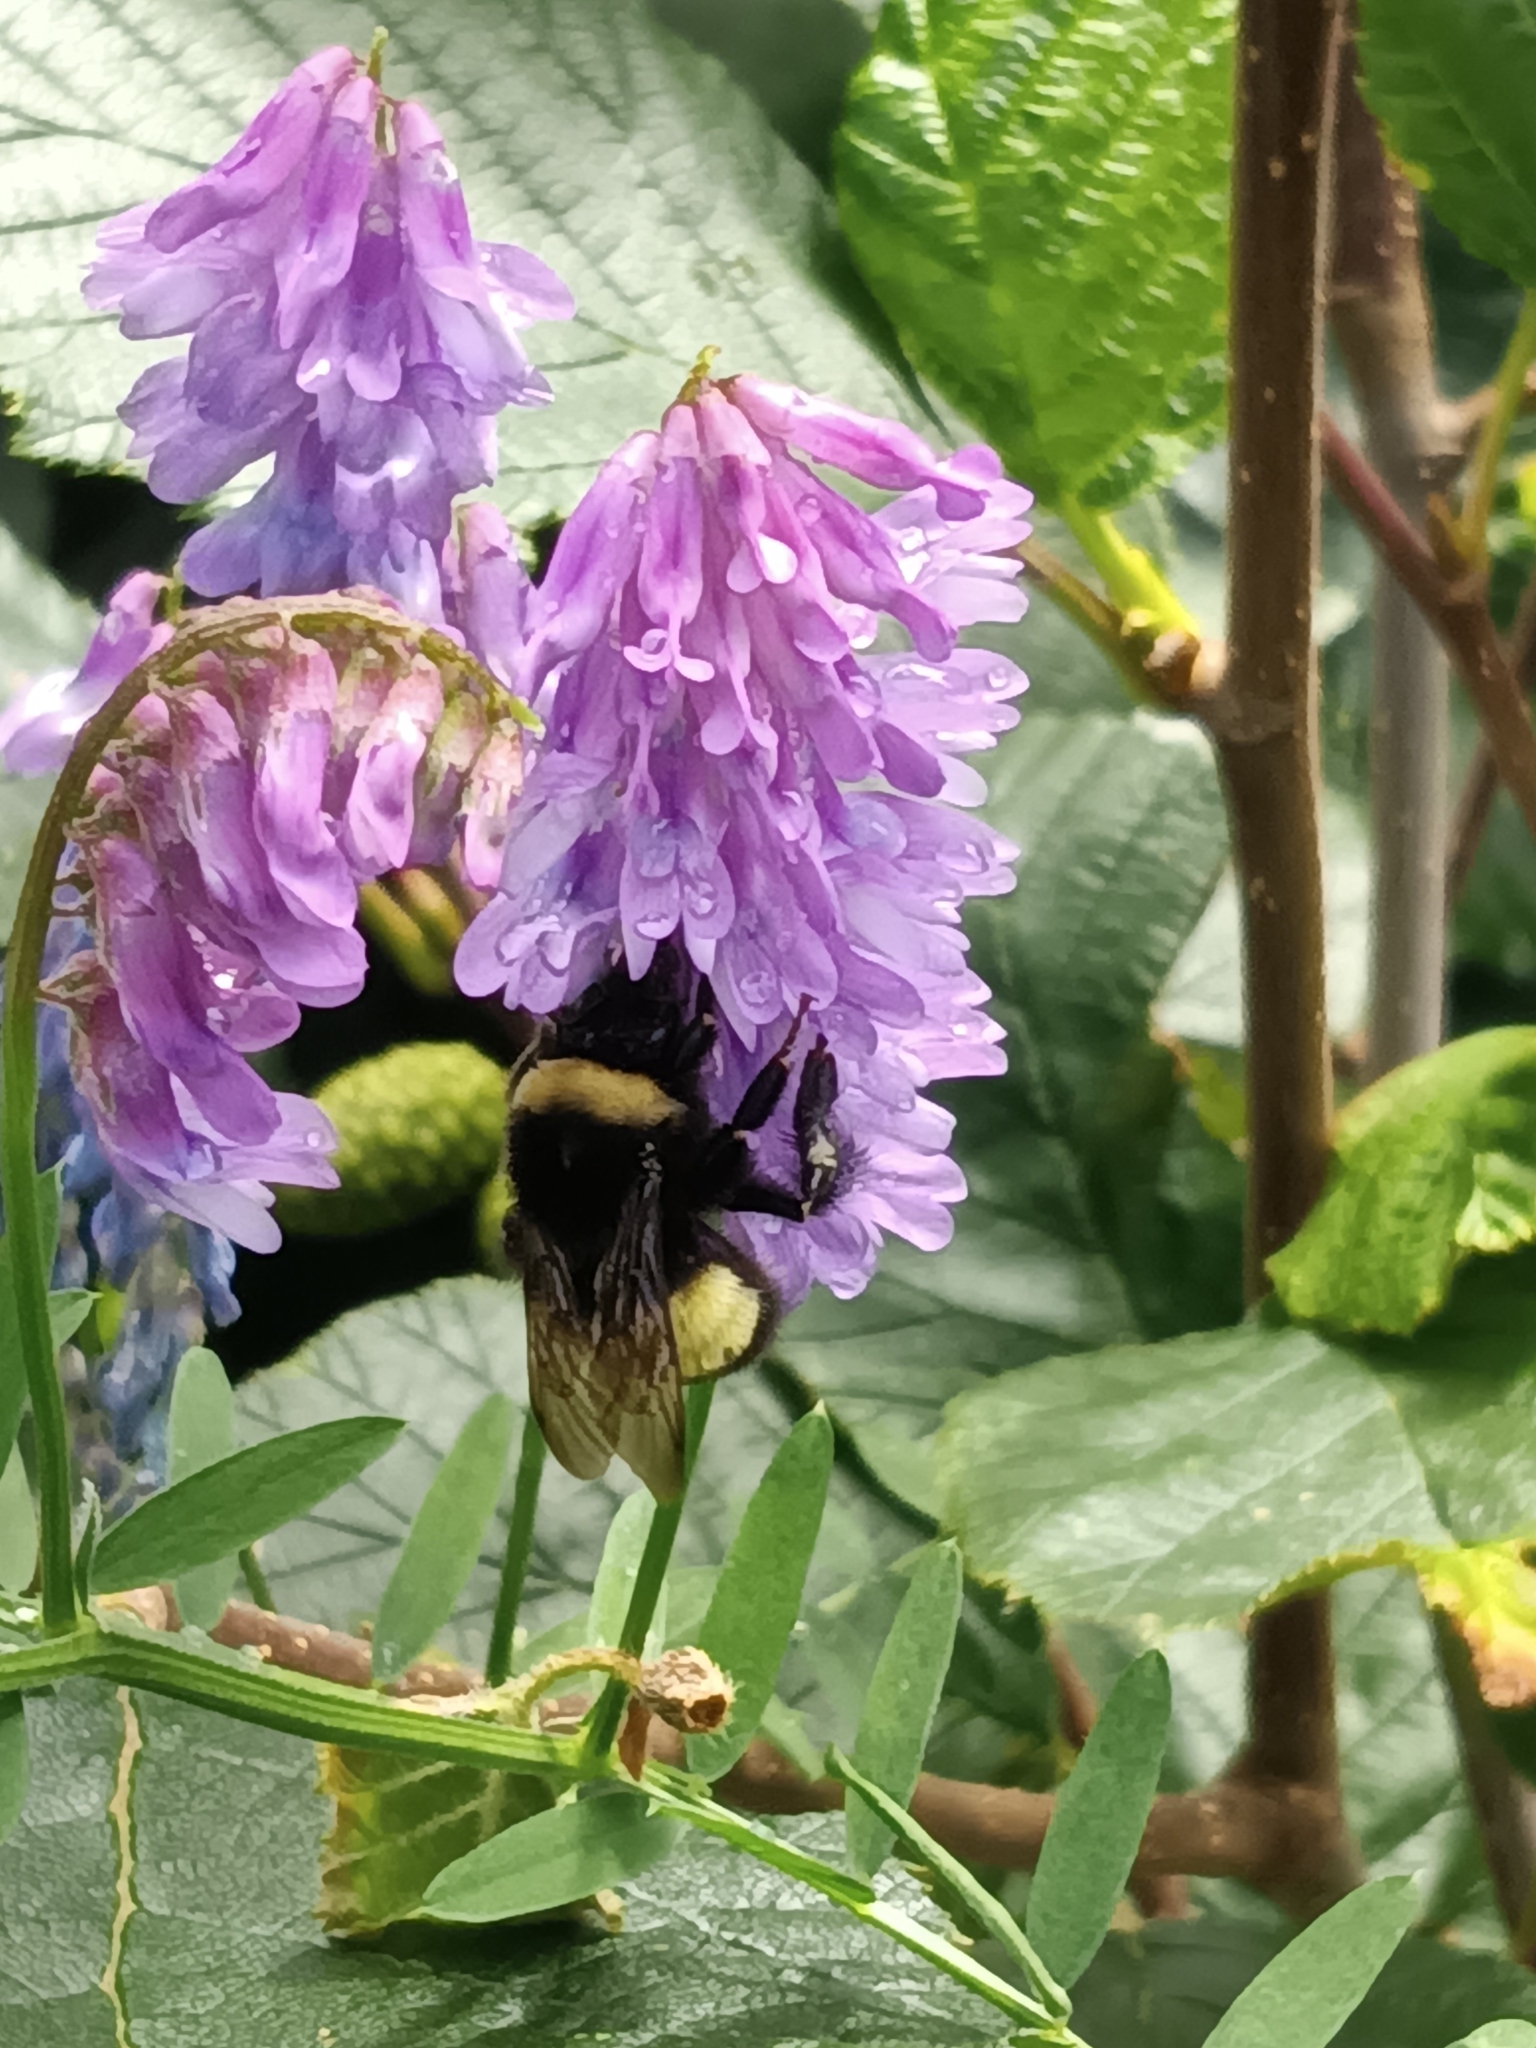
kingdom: Animalia
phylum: Arthropoda
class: Insecta
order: Hymenoptera
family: Apidae
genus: Bombus
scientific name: Bombus terricola
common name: Yellow-banded bumble bee
